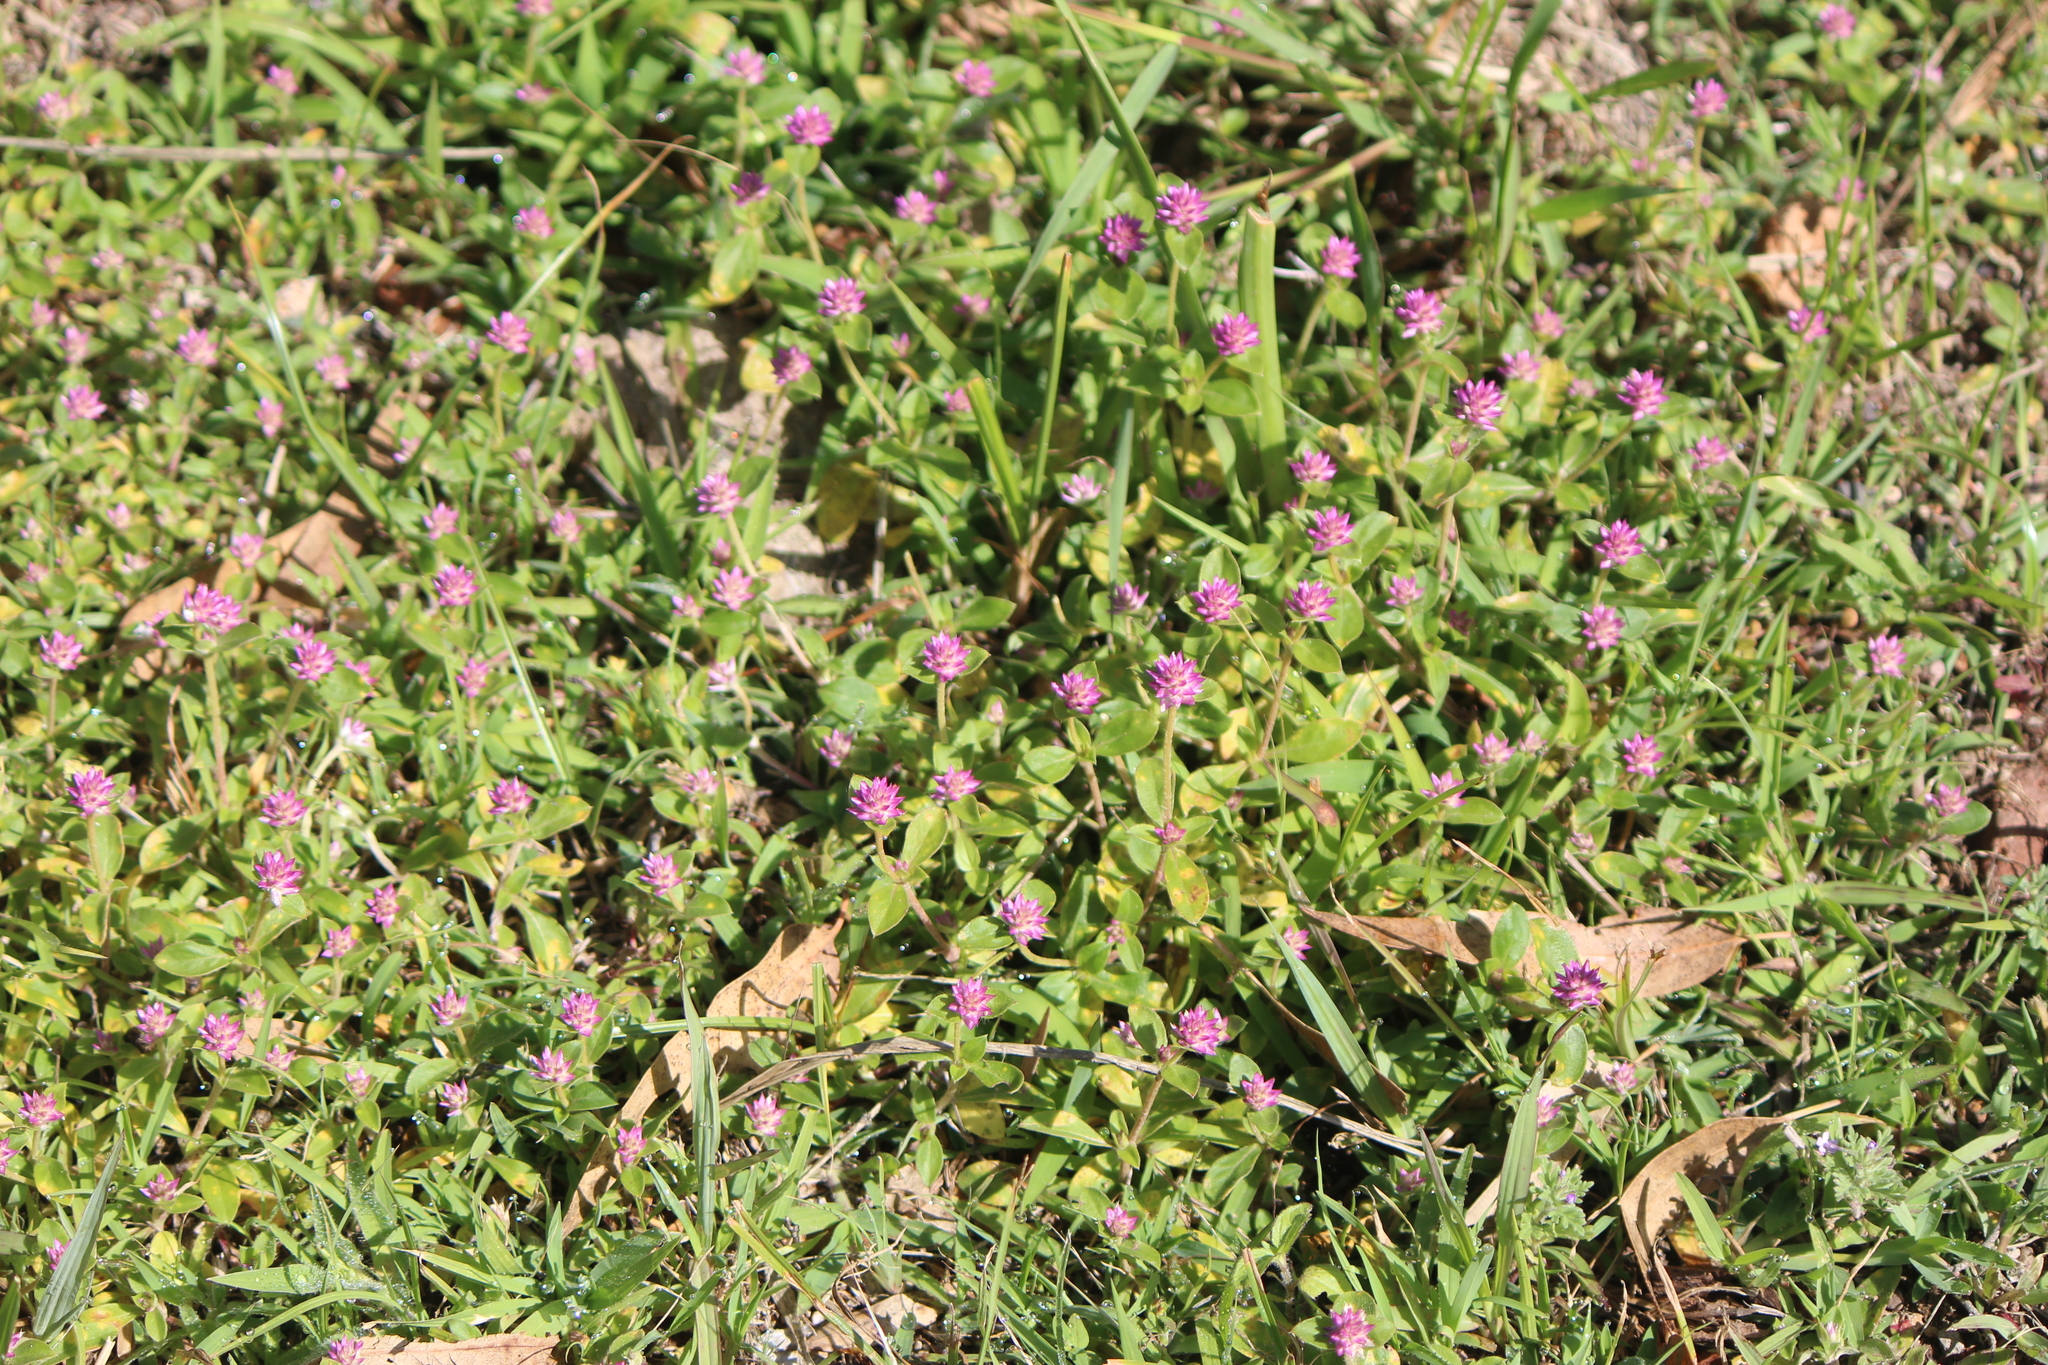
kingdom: Plantae
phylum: Tracheophyta
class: Magnoliopsida
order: Caryophyllales
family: Amaranthaceae
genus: Gomphrena
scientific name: Gomphrena serrata
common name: Arrasa con todo
